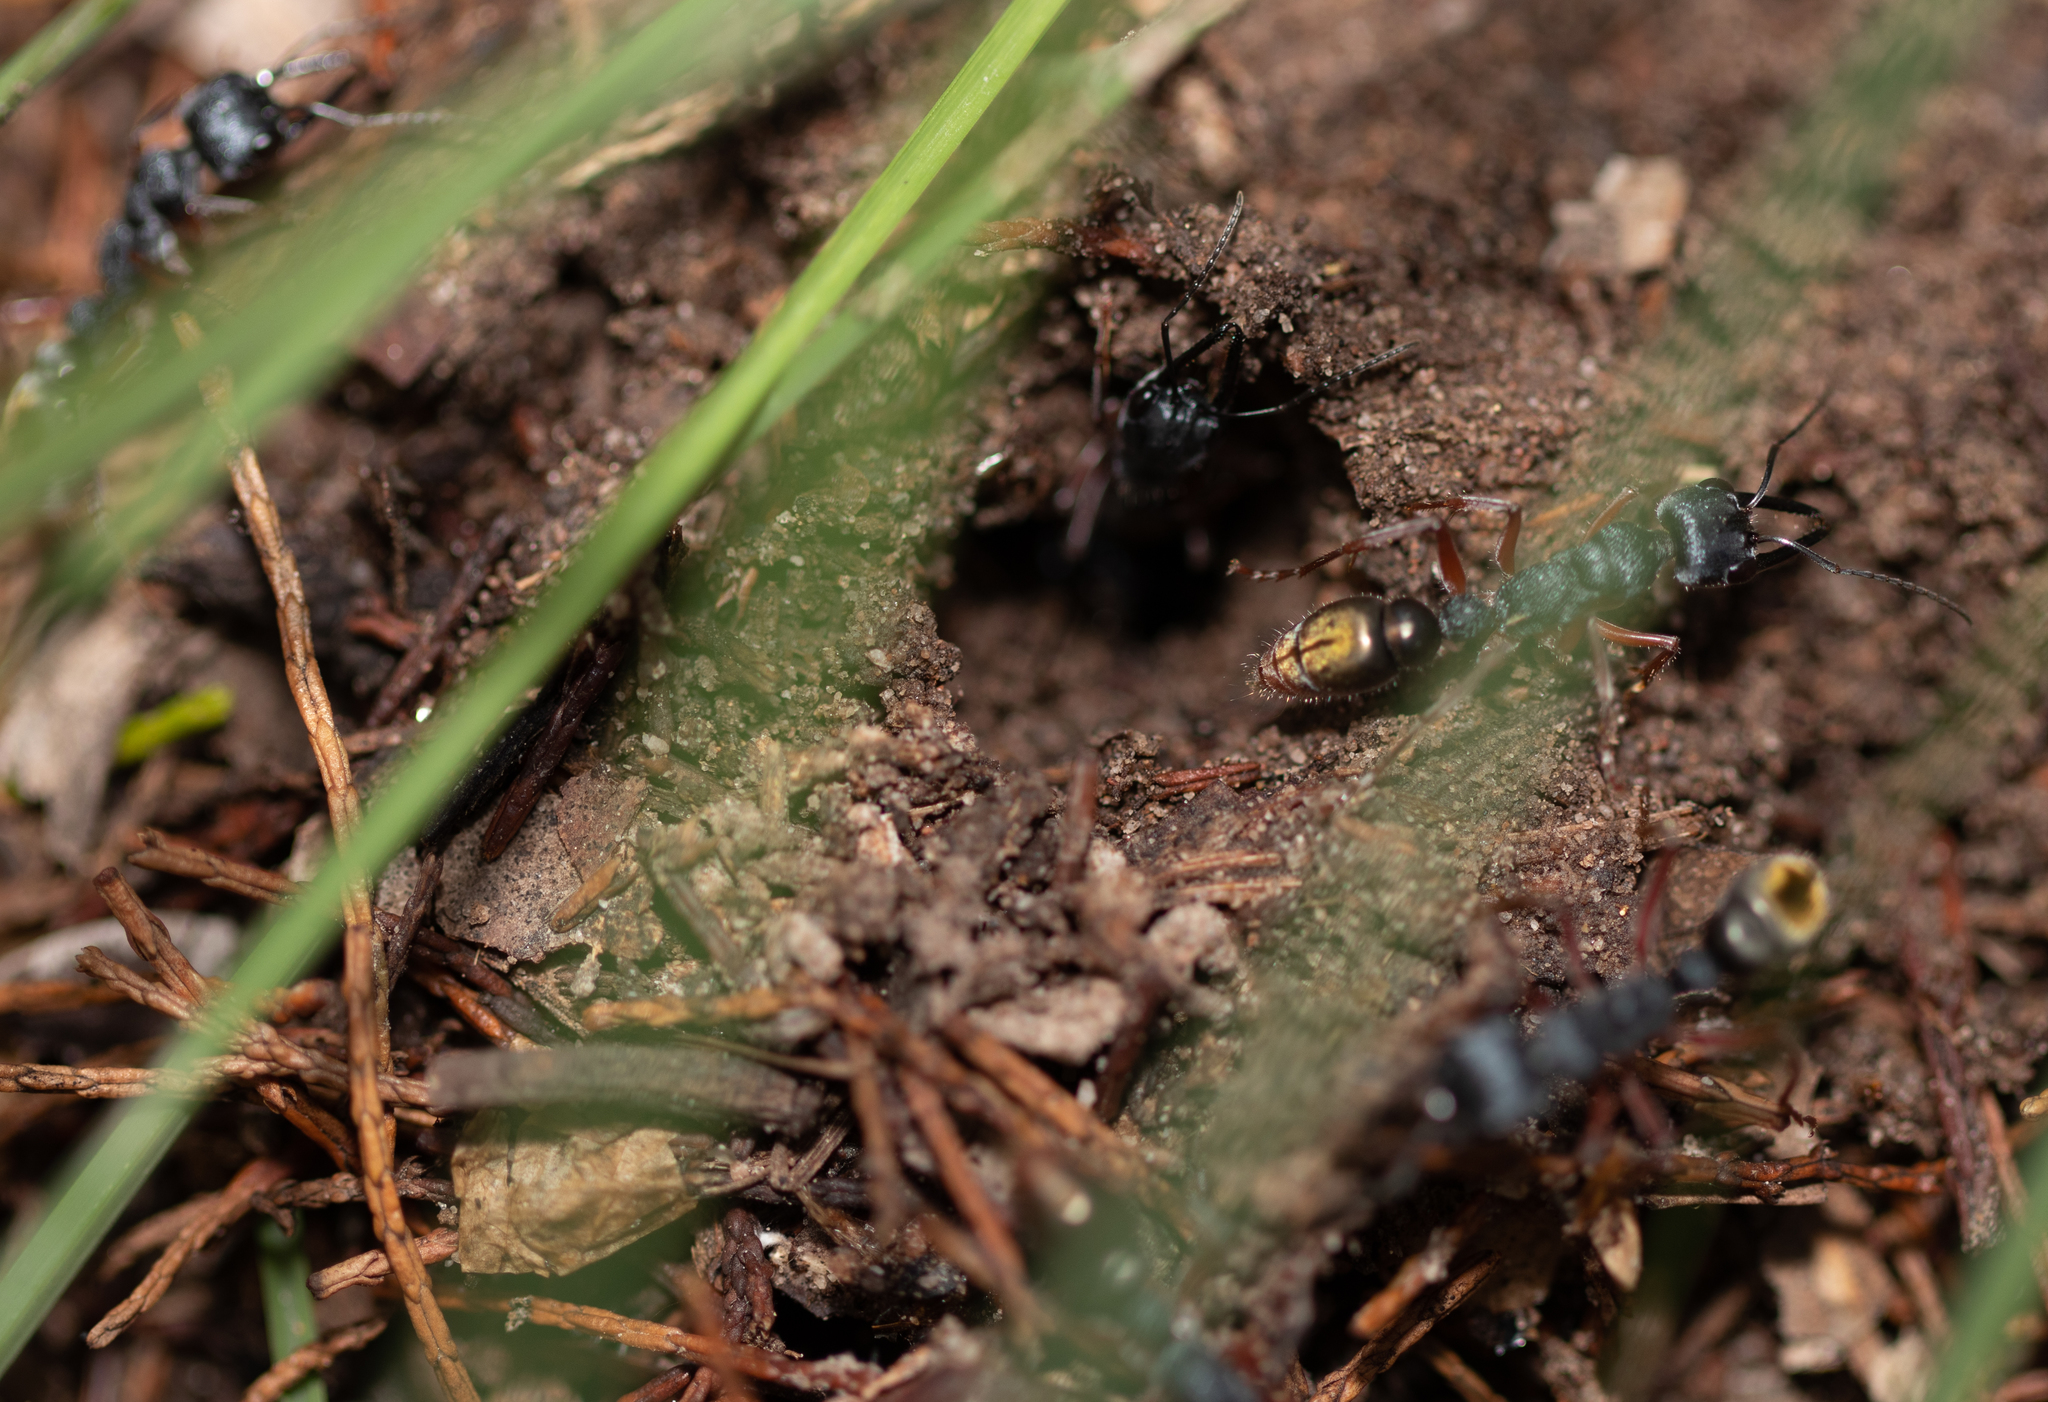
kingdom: Animalia
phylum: Arthropoda
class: Insecta
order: Hymenoptera
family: Formicidae
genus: Myrmecia
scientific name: Myrmecia fulviculis
